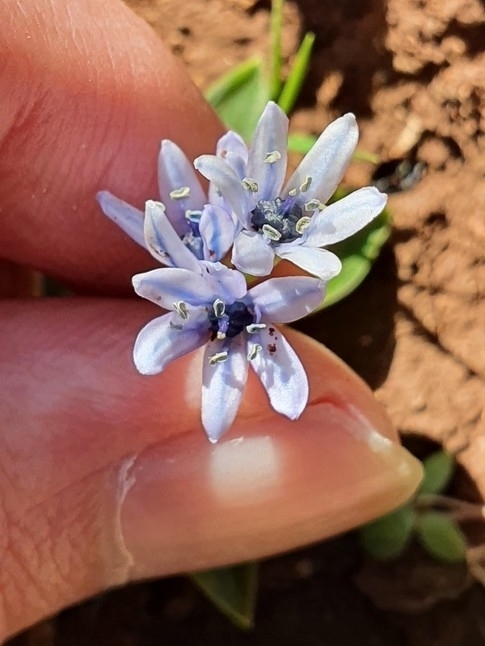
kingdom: Plantae
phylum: Tracheophyta
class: Liliopsida
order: Asparagales
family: Asparagaceae
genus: Hyacinthoides
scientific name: Hyacinthoides lingulata
